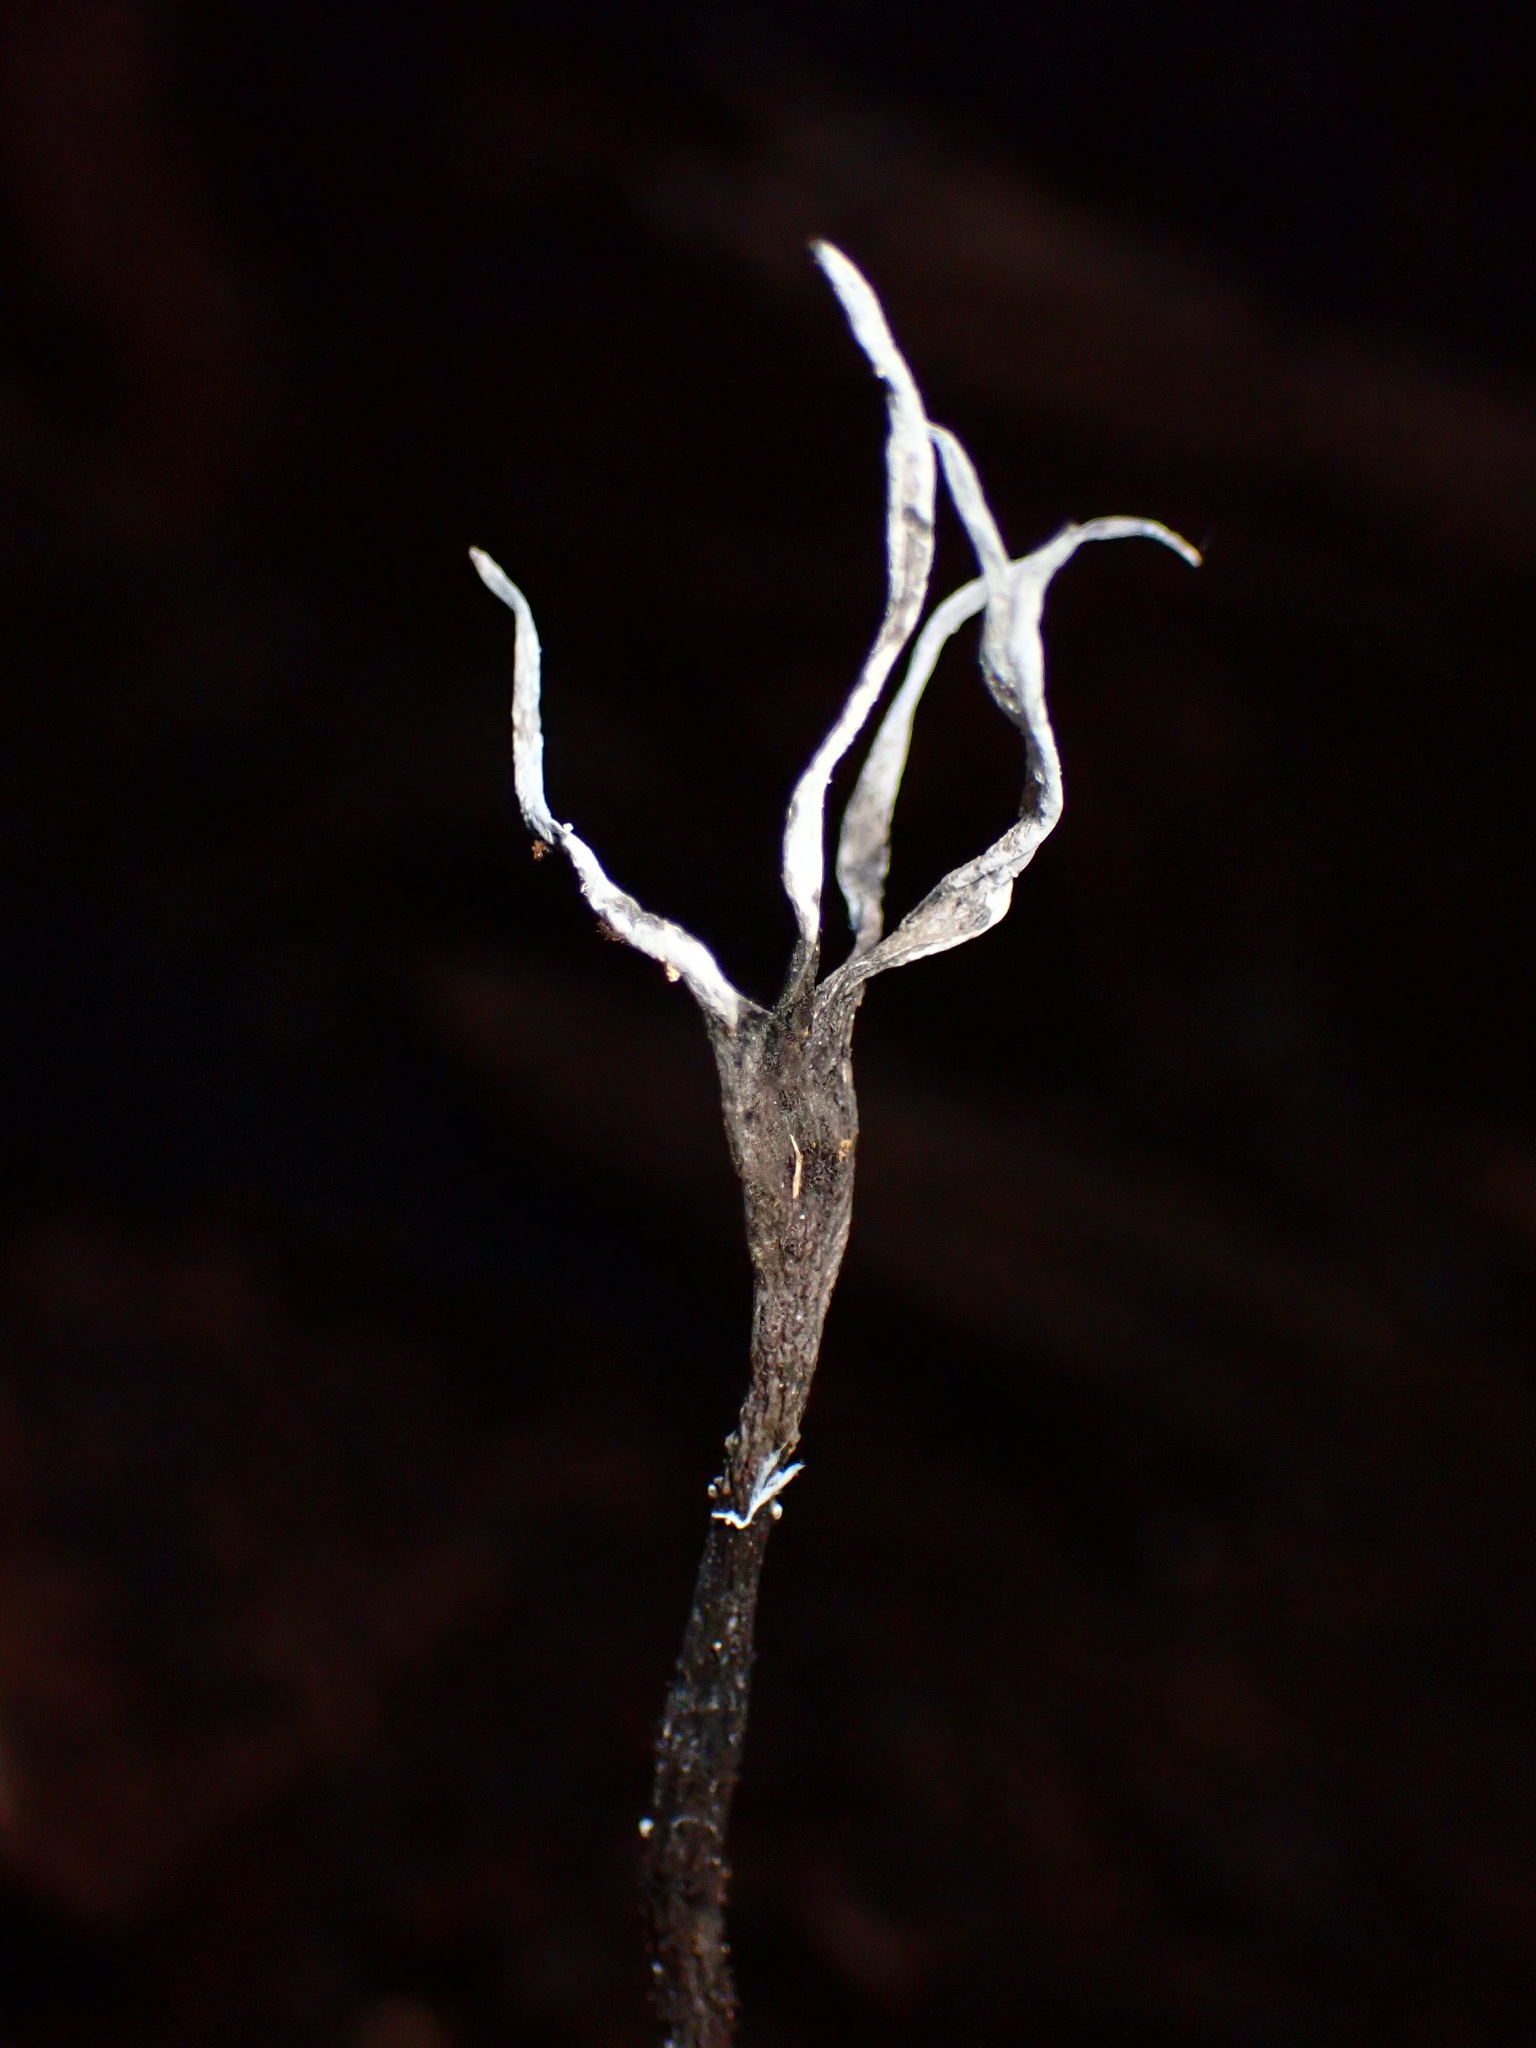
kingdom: Fungi
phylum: Ascomycota
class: Sordariomycetes
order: Xylariales
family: Xylariaceae
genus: Xylaria
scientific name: Xylaria hypoxylon
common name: Candle-snuff fungus
